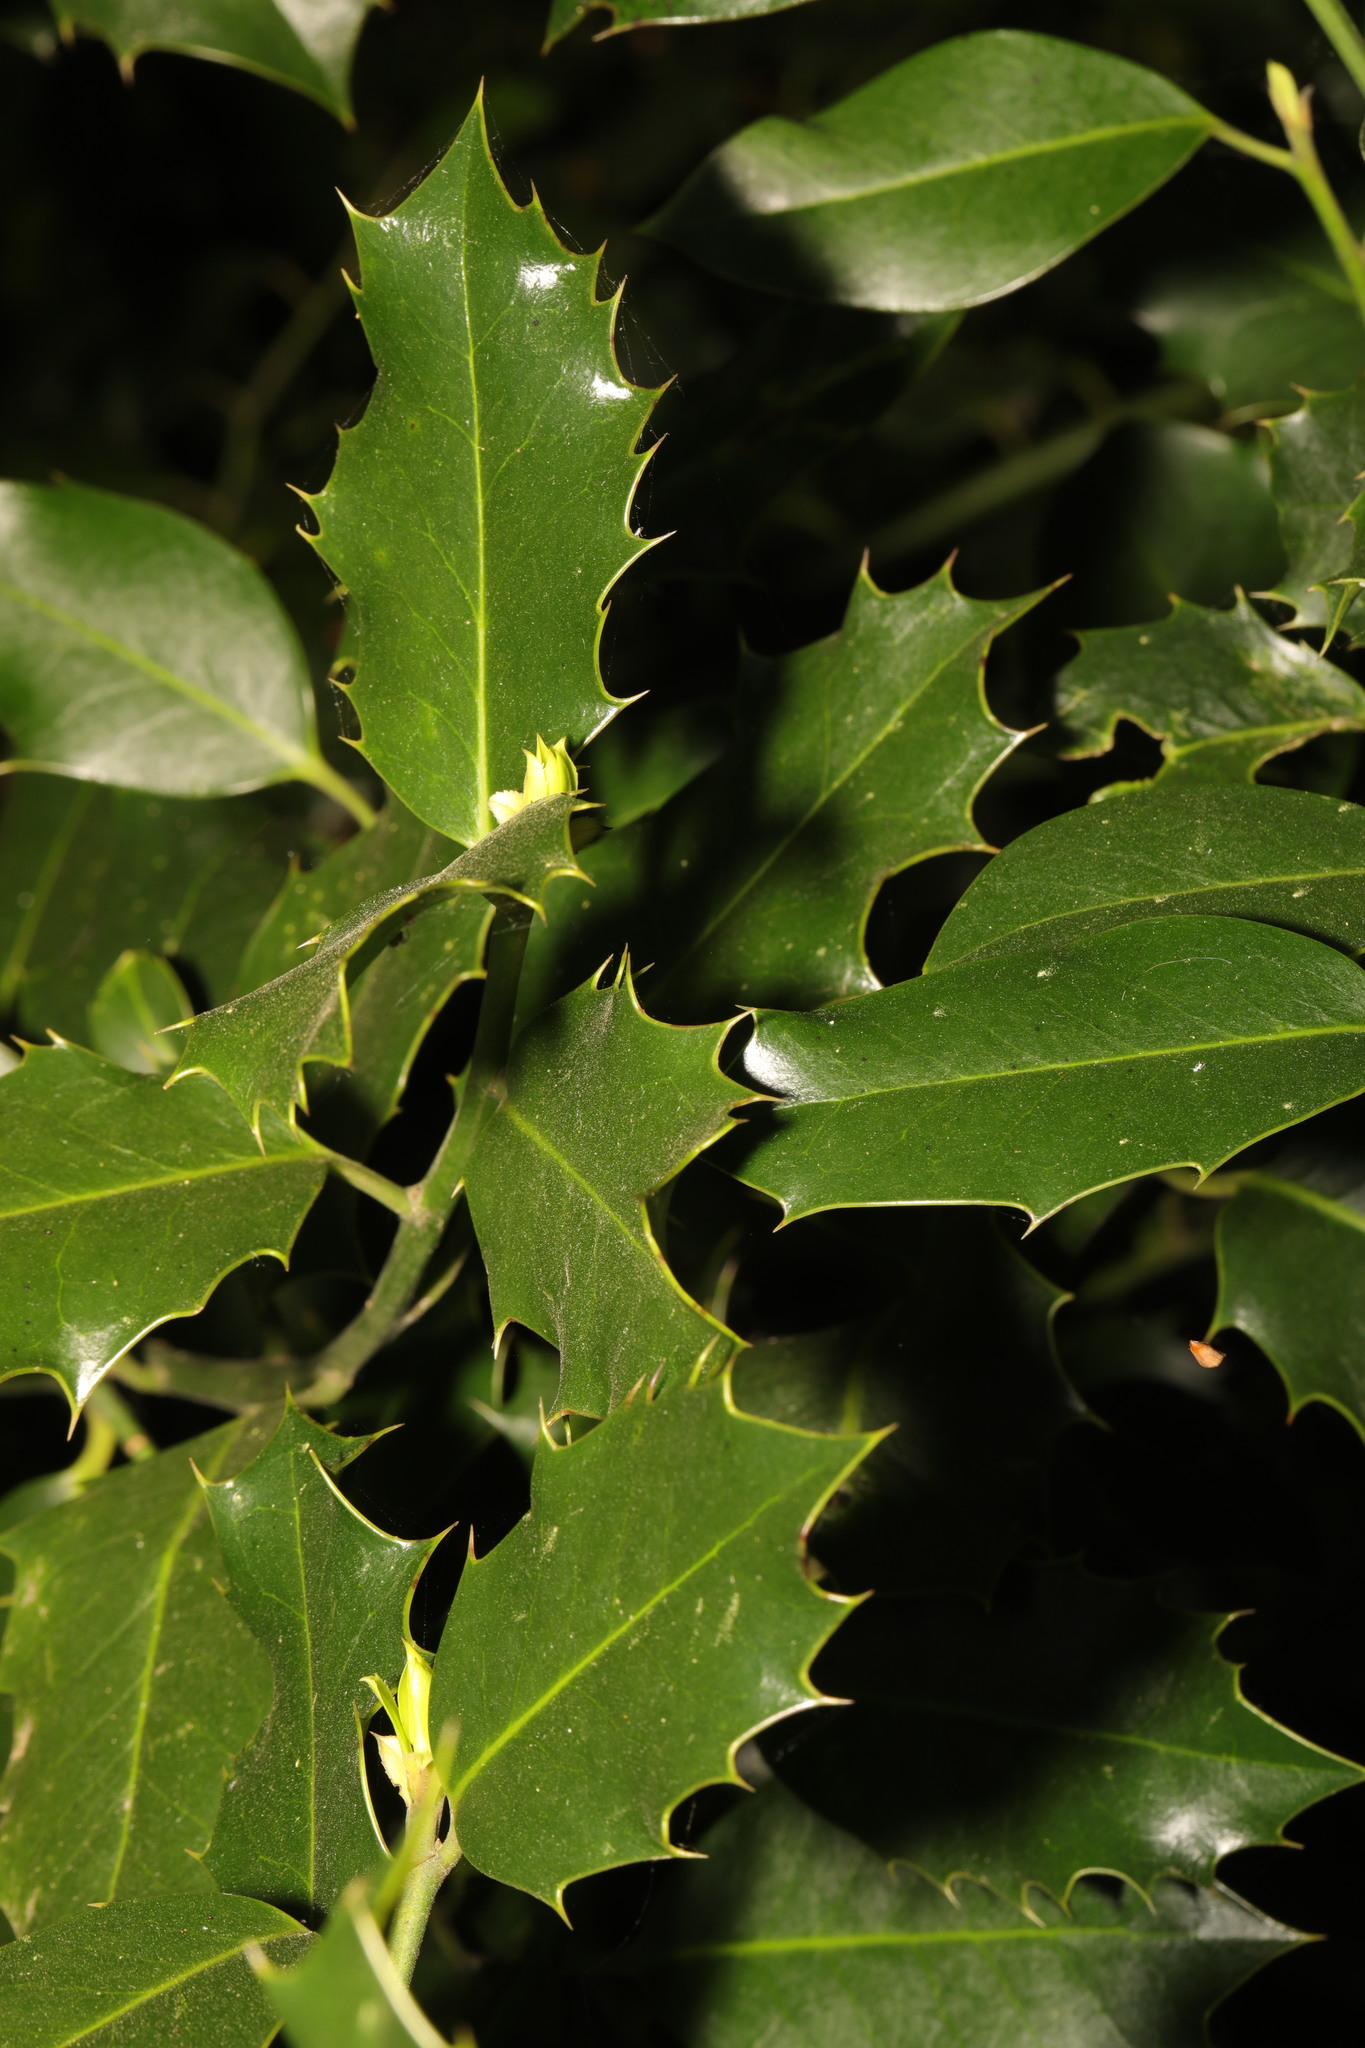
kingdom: Plantae
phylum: Tracheophyta
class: Magnoliopsida
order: Aquifoliales
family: Aquifoliaceae
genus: Ilex
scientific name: Ilex aquifolium
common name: English holly
